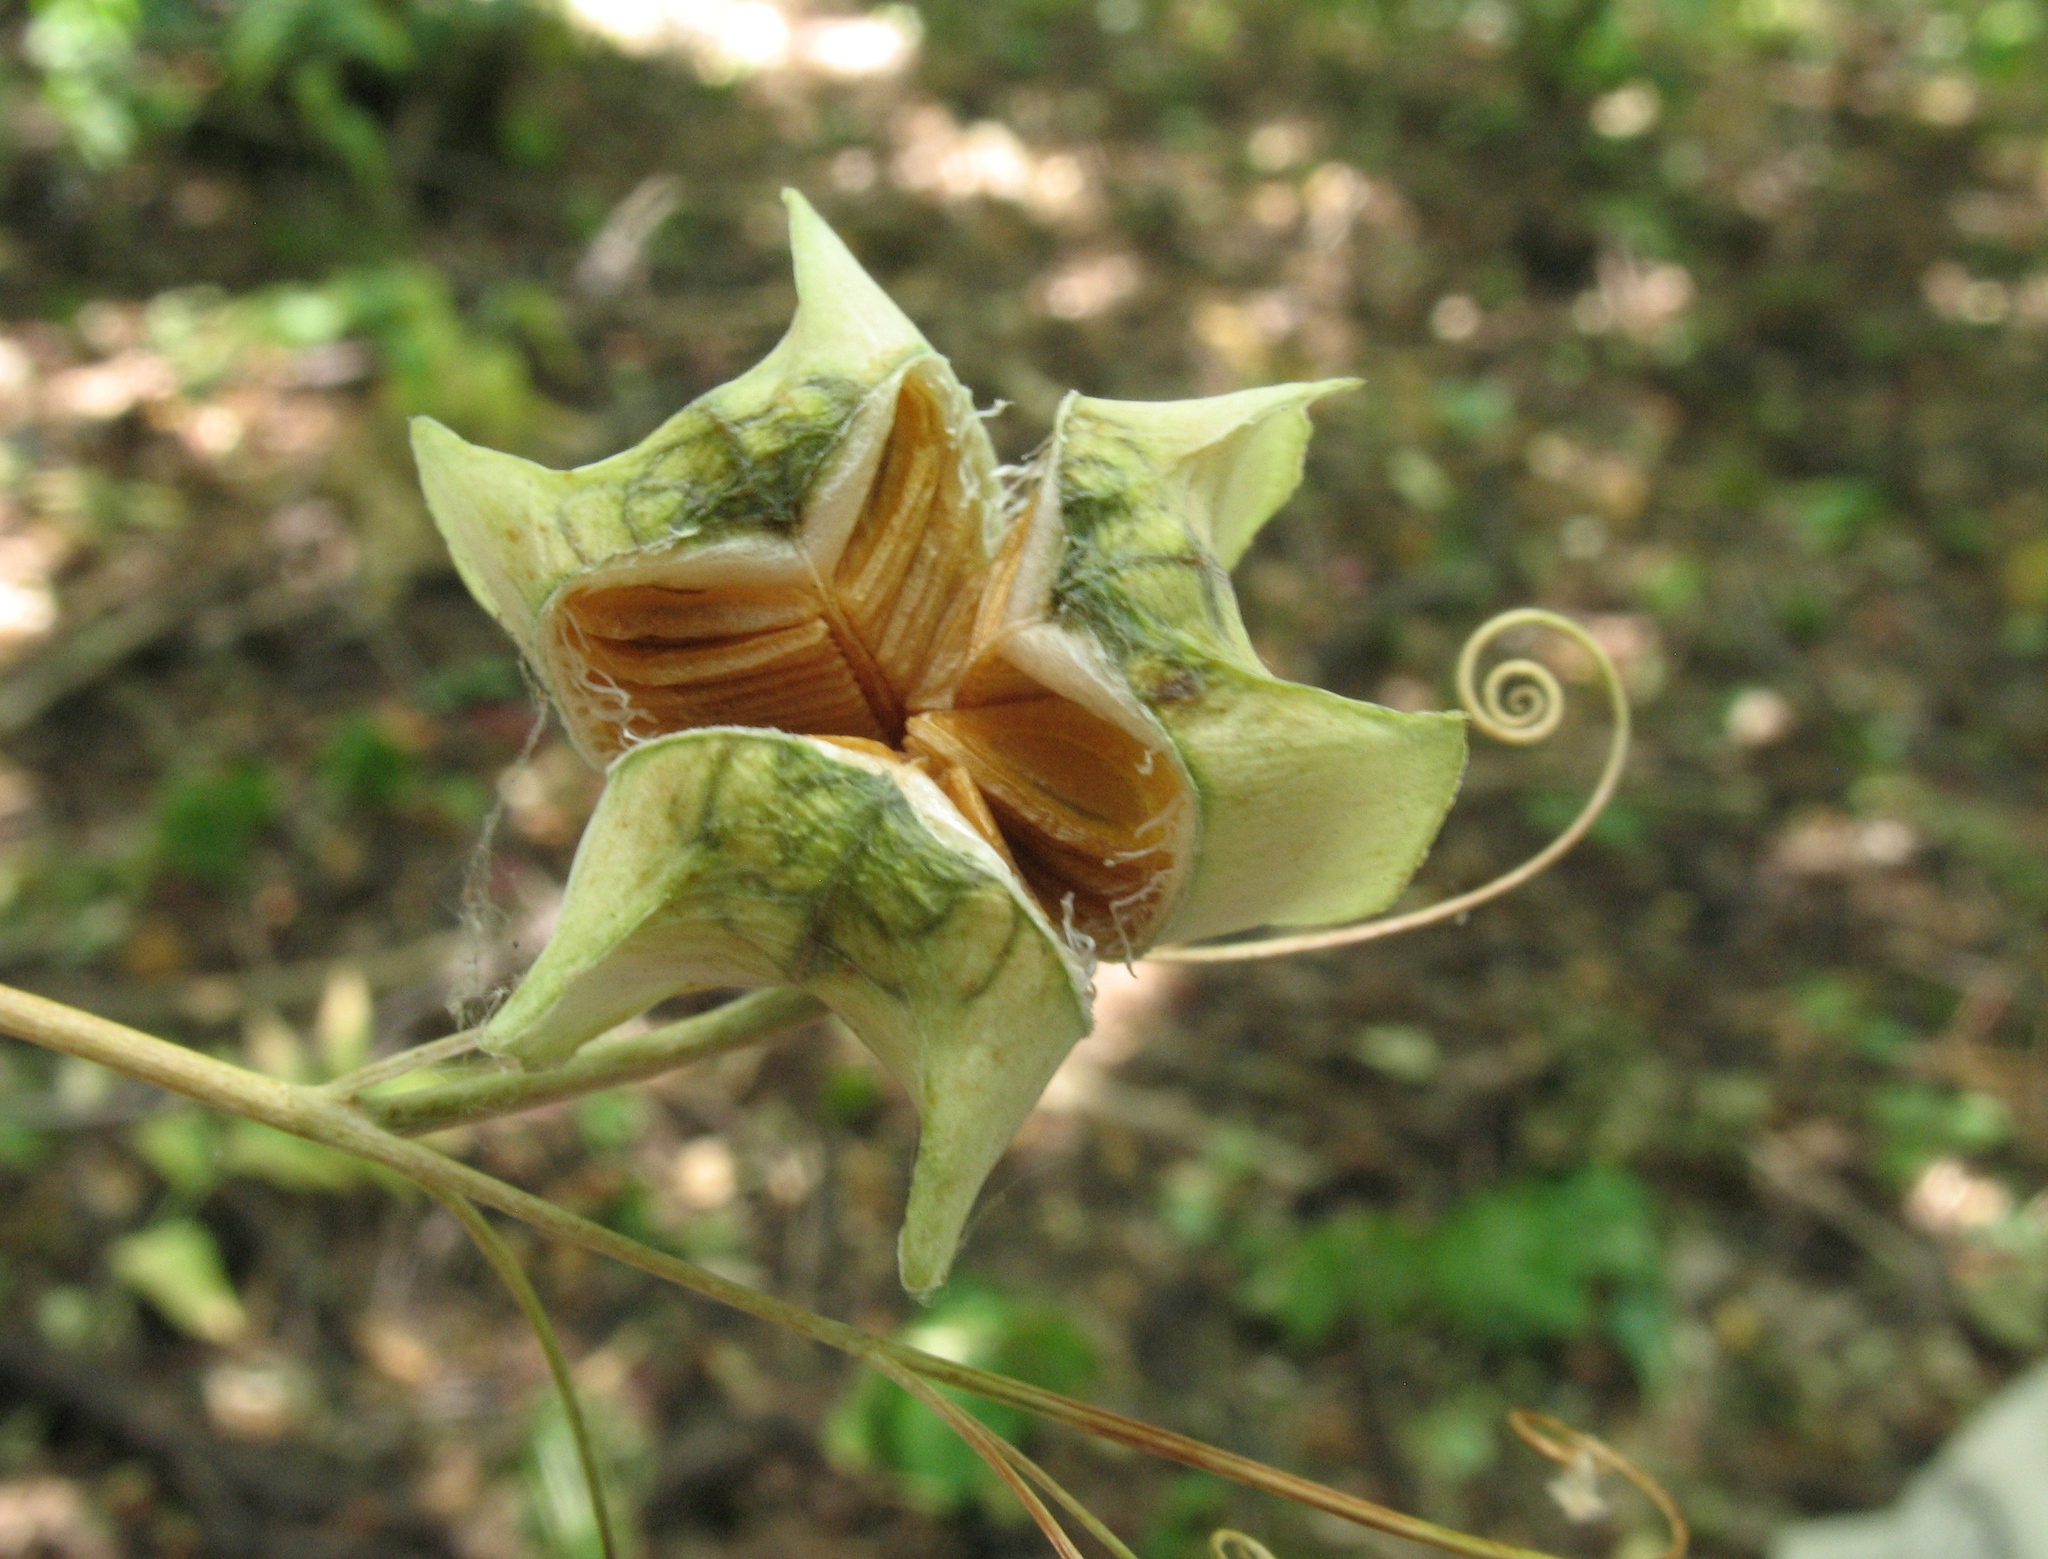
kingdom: Plantae
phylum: Tracheophyta
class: Liliopsida
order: Liliales
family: Liliaceae
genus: Fritillaria
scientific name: Fritillaria ruthenica
